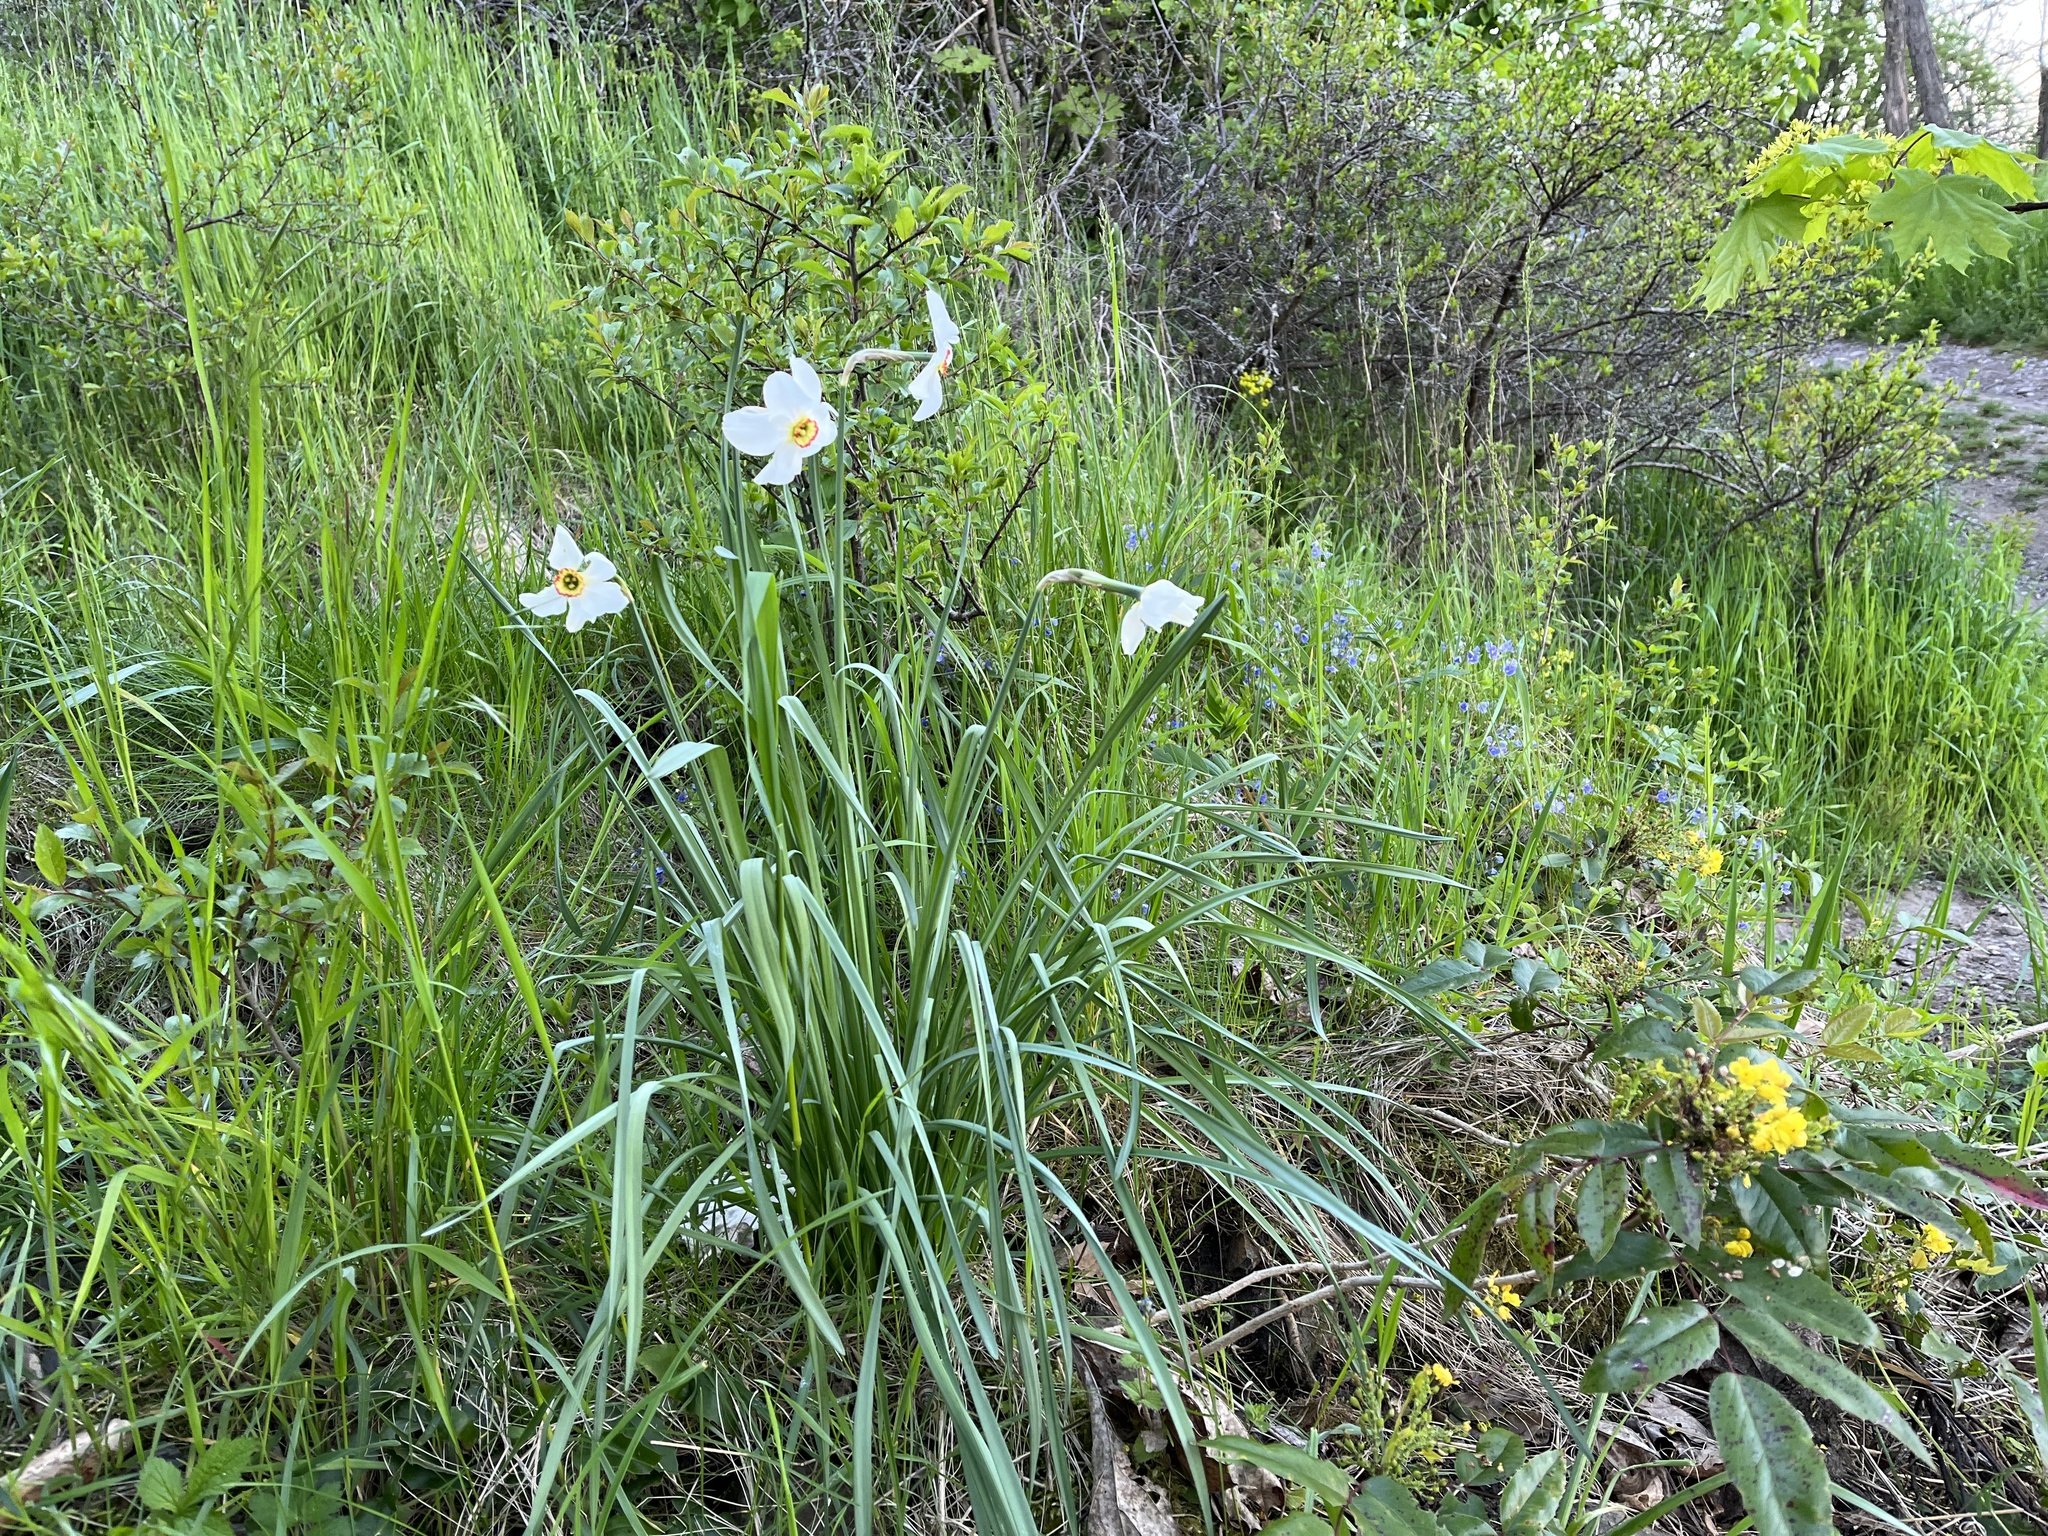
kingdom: Plantae
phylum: Tracheophyta
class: Liliopsida
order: Asparagales
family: Amaryllidaceae
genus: Narcissus
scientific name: Narcissus poeticus
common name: Pheasant's-eye daffodil
